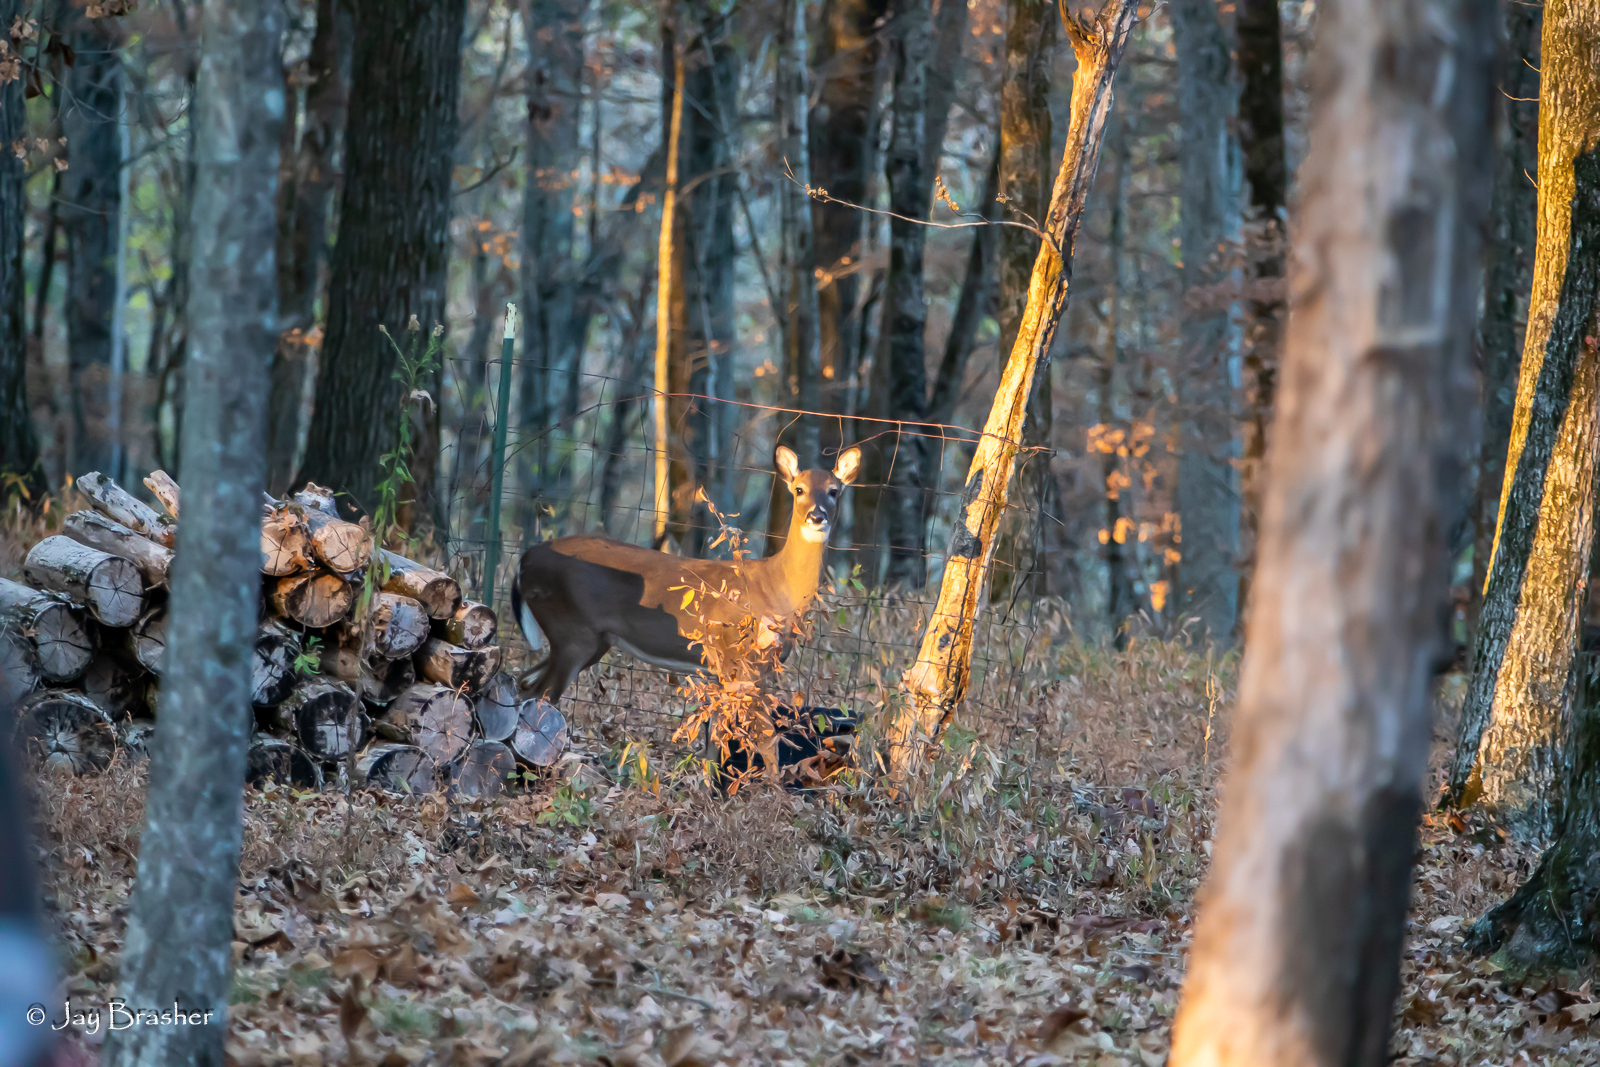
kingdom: Animalia
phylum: Chordata
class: Mammalia
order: Artiodactyla
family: Cervidae
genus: Odocoileus
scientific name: Odocoileus virginianus
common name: White-tailed deer
